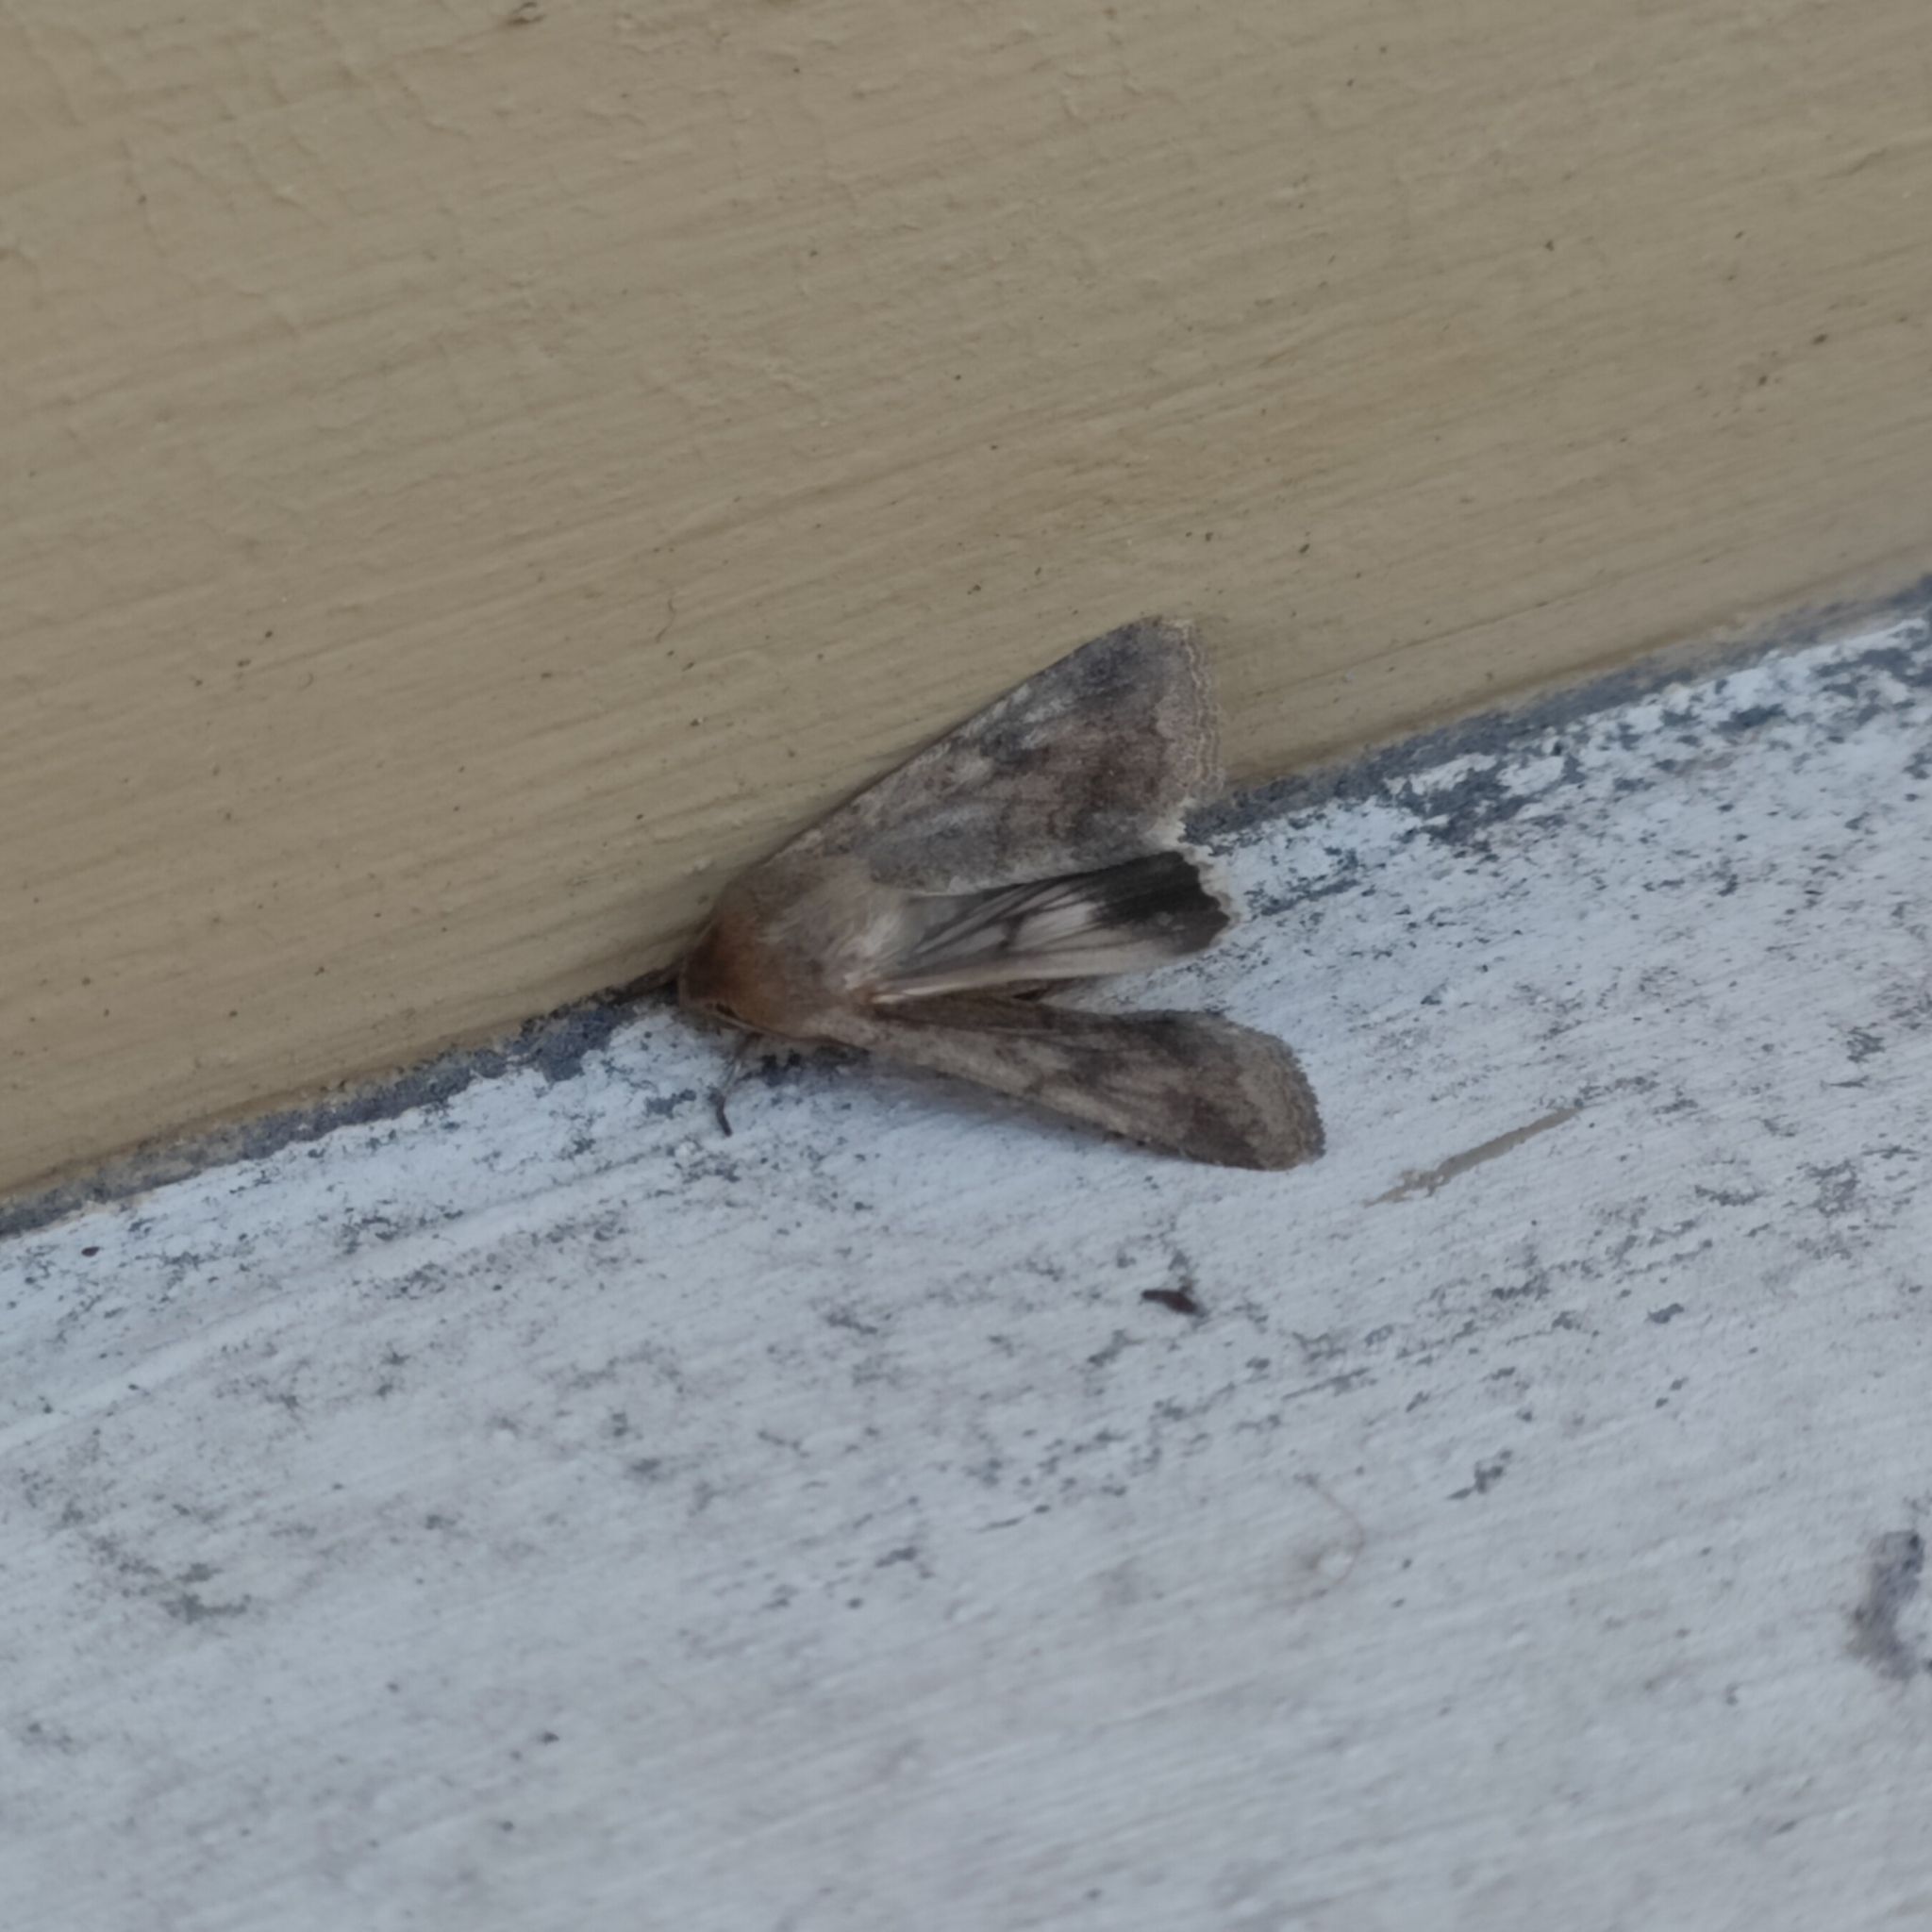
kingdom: Animalia
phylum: Arthropoda
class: Insecta
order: Lepidoptera
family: Noctuidae
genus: Helicoverpa
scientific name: Helicoverpa armigera
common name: Cotton bollworm
